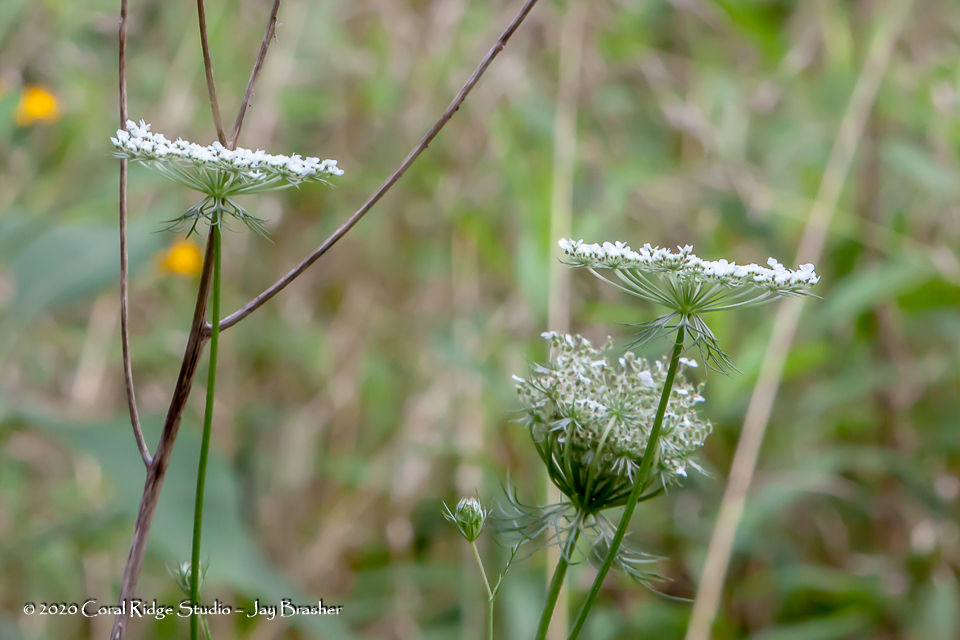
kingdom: Plantae
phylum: Tracheophyta
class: Magnoliopsida
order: Apiales
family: Apiaceae
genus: Daucus
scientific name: Daucus carota
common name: Wild carrot
